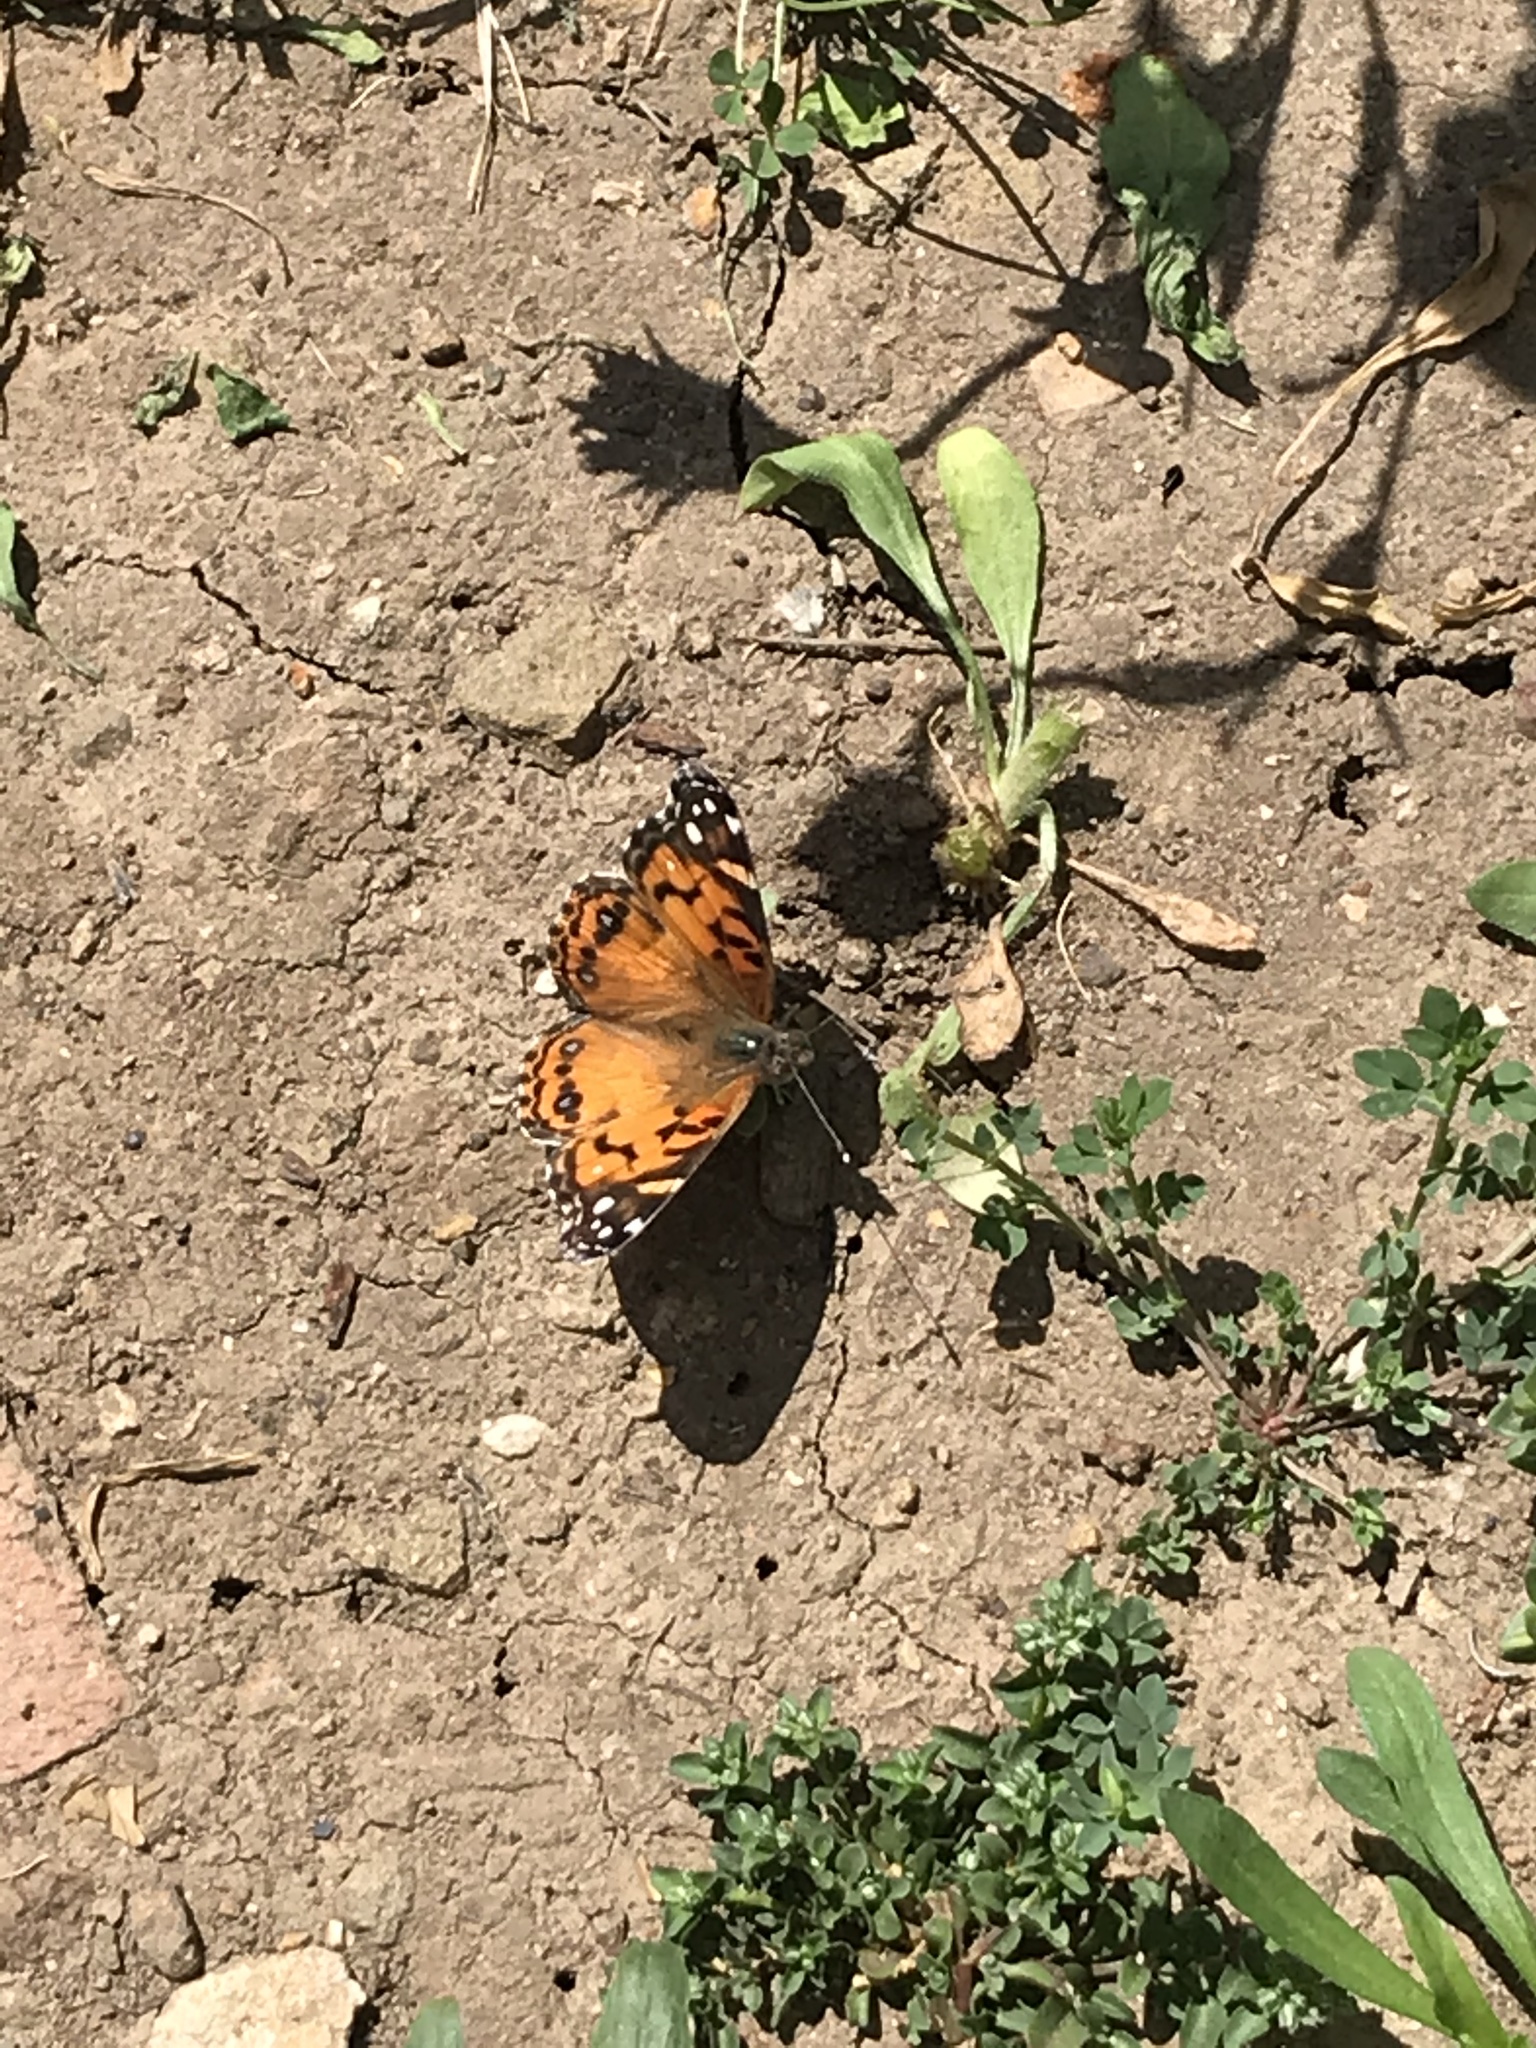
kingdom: Animalia
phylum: Arthropoda
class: Insecta
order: Lepidoptera
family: Nymphalidae
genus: Vanessa
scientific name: Vanessa virginiensis
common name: American lady
